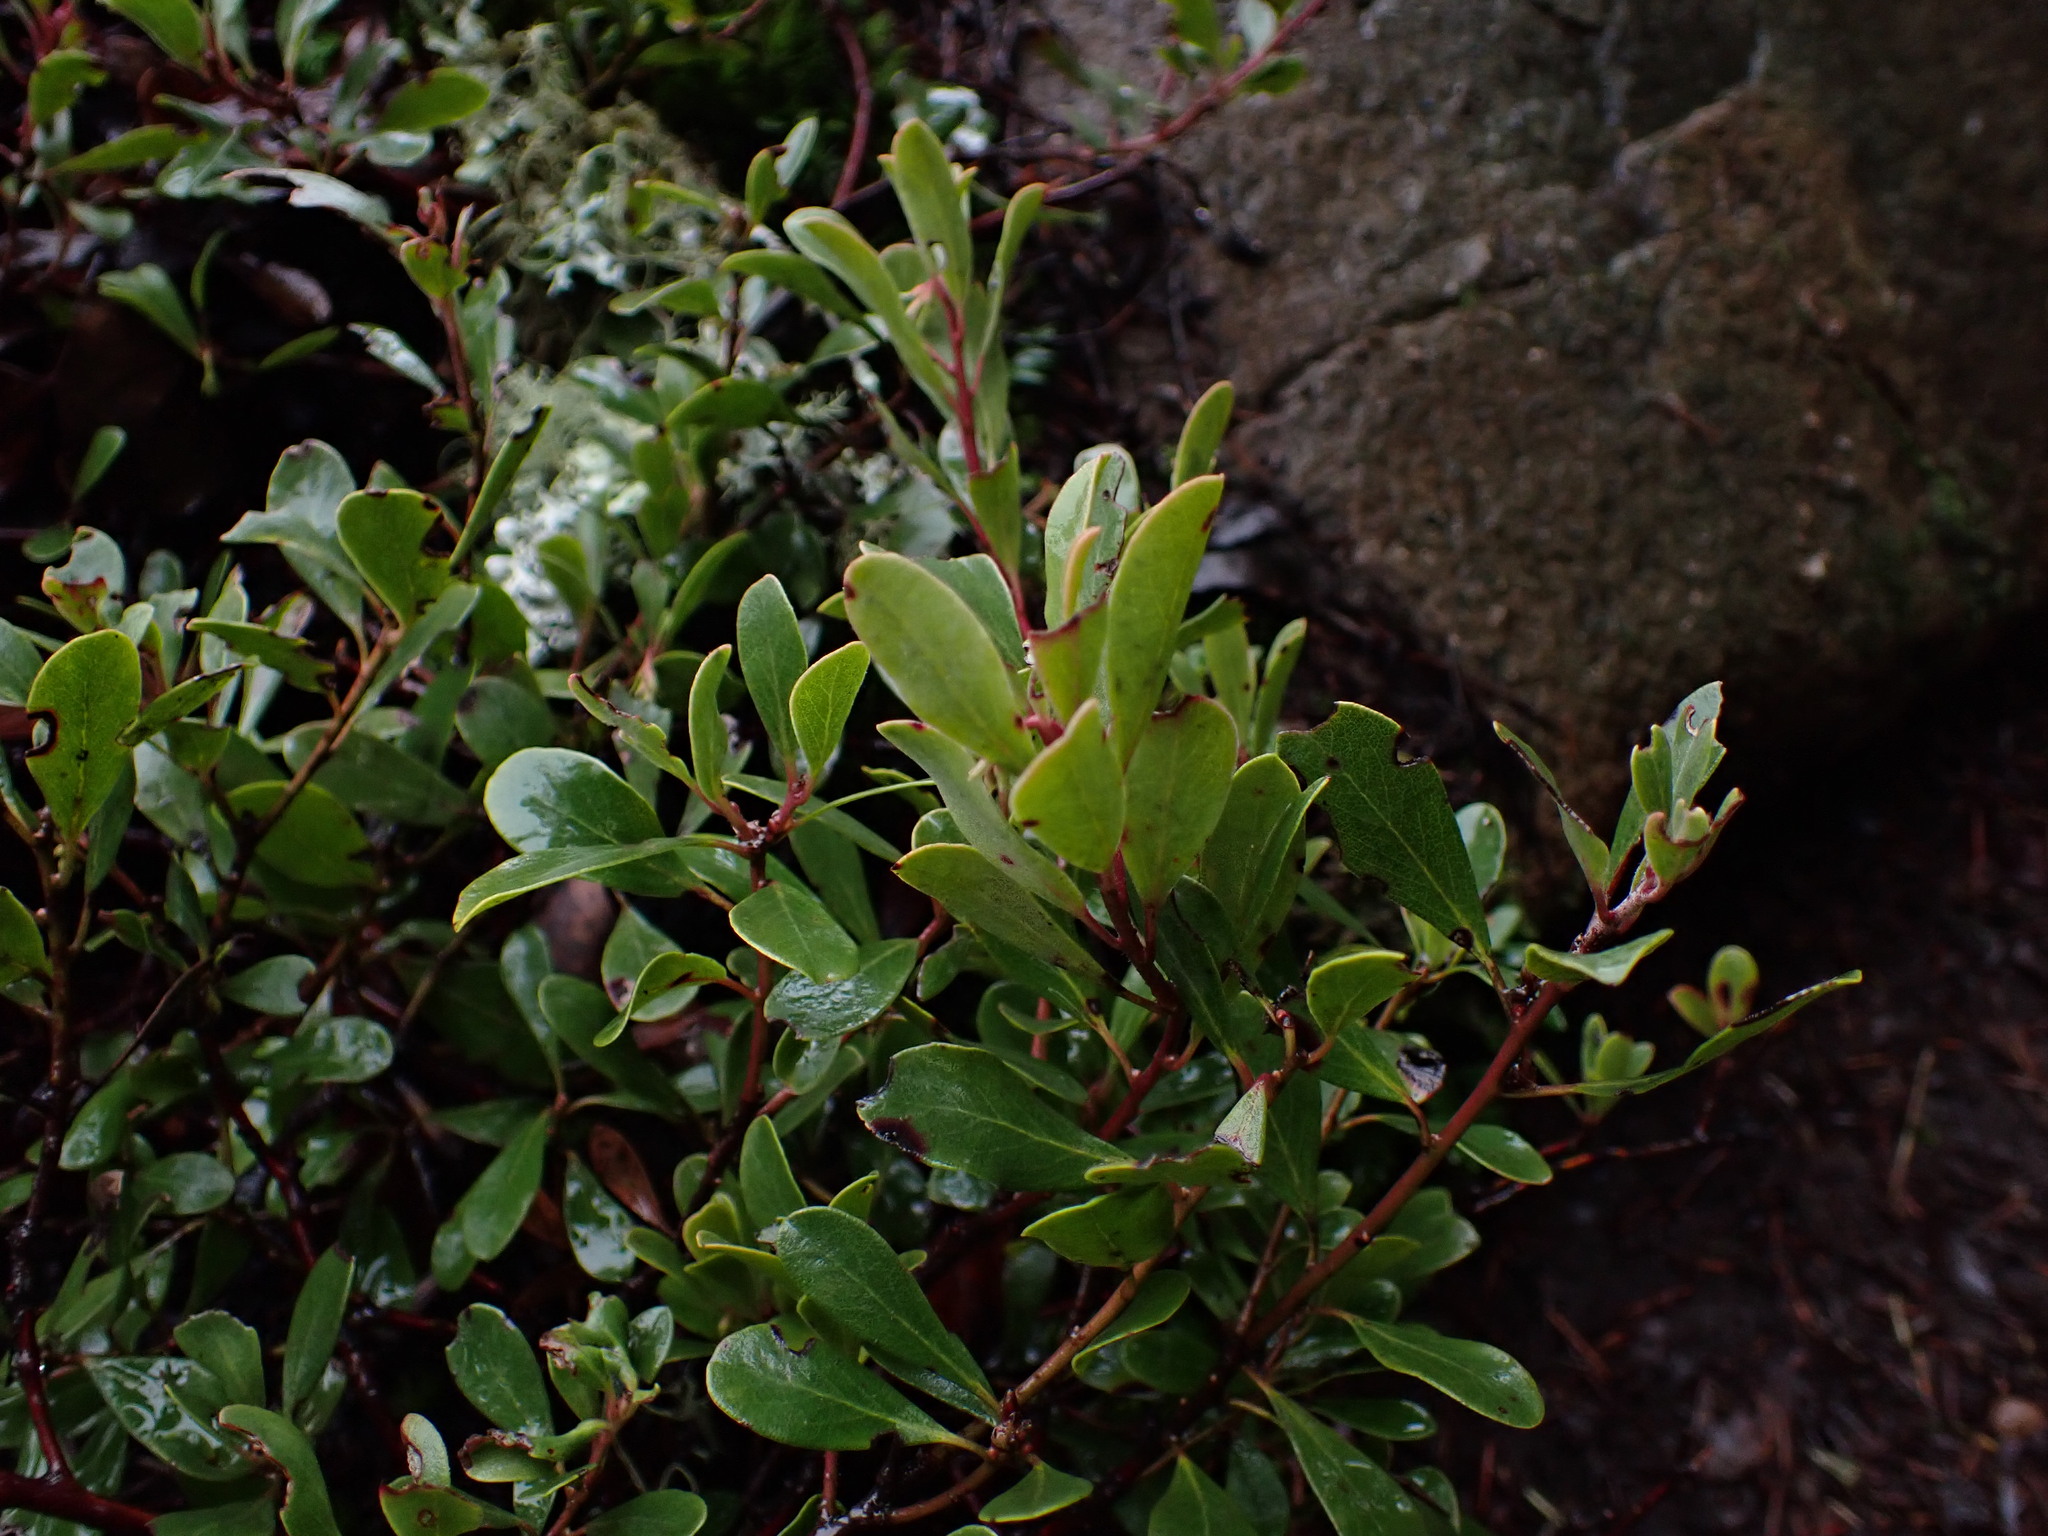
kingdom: Plantae
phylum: Tracheophyta
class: Magnoliopsida
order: Ericales
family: Ericaceae
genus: Arctostaphylos
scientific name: Arctostaphylos uva-ursi
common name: Bearberry
